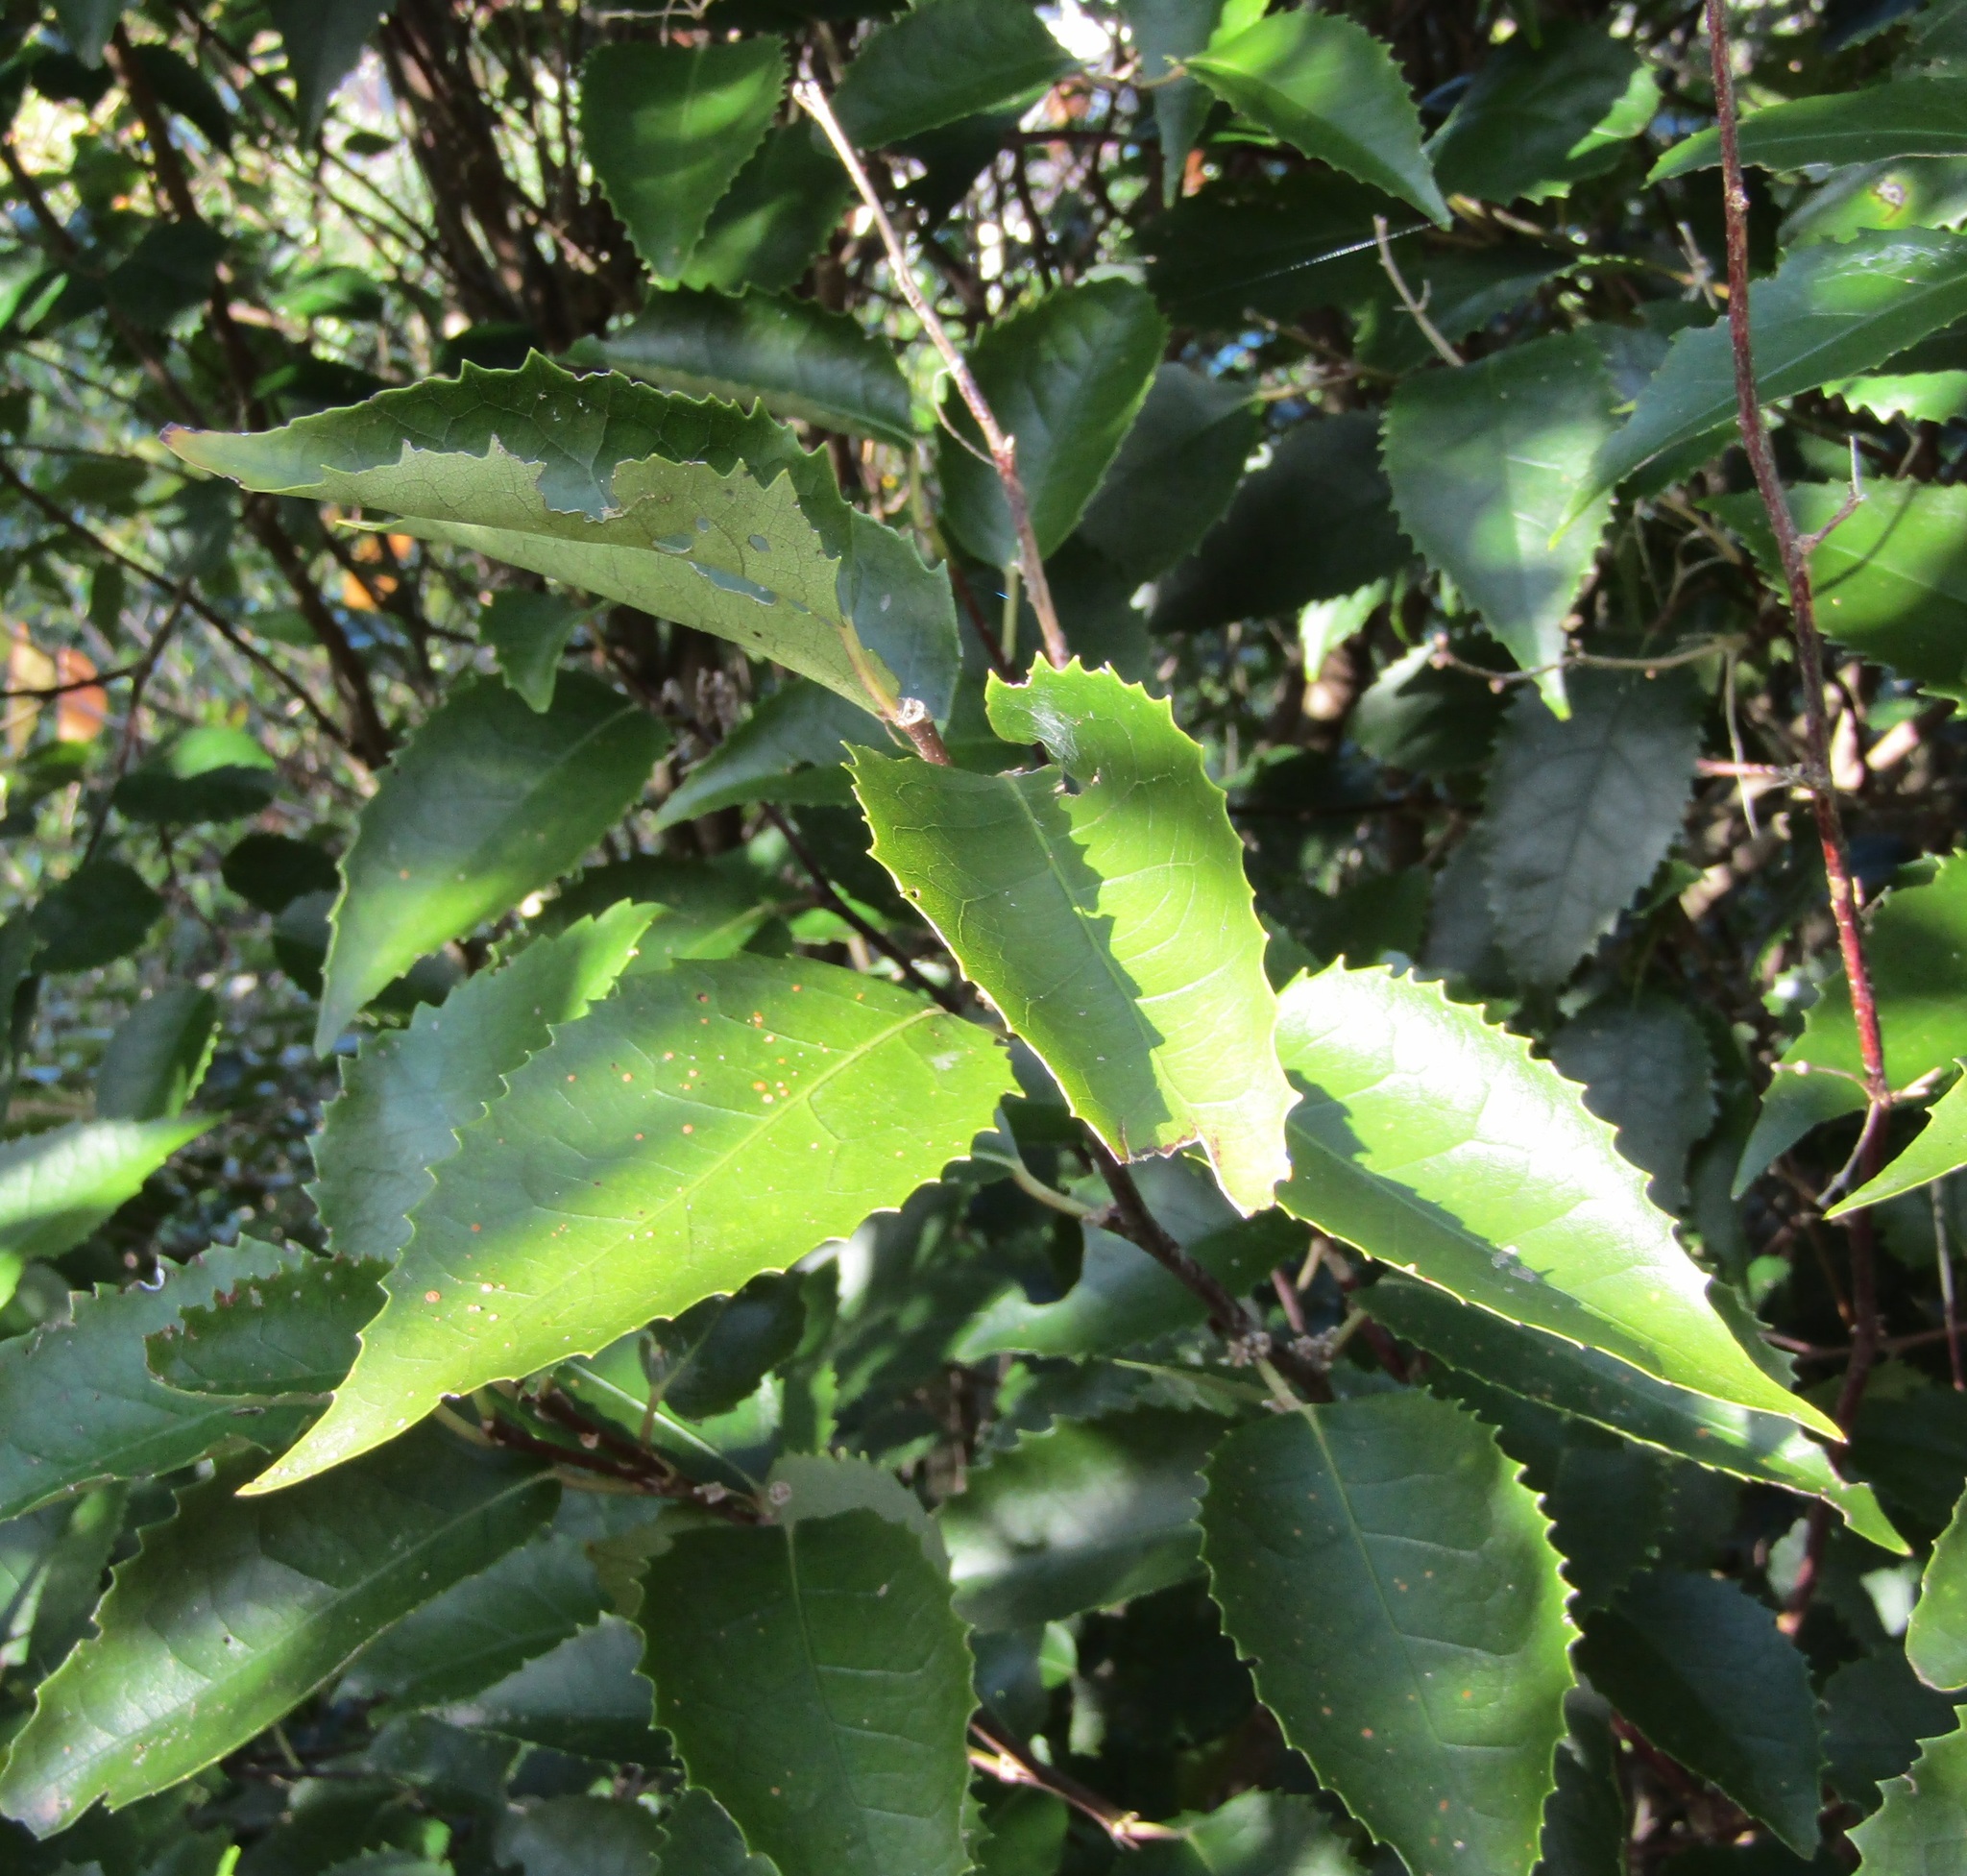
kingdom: Plantae
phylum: Tracheophyta
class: Magnoliopsida
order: Malvales
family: Malvaceae
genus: Hoheria
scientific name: Hoheria populnea
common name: Lacebark
